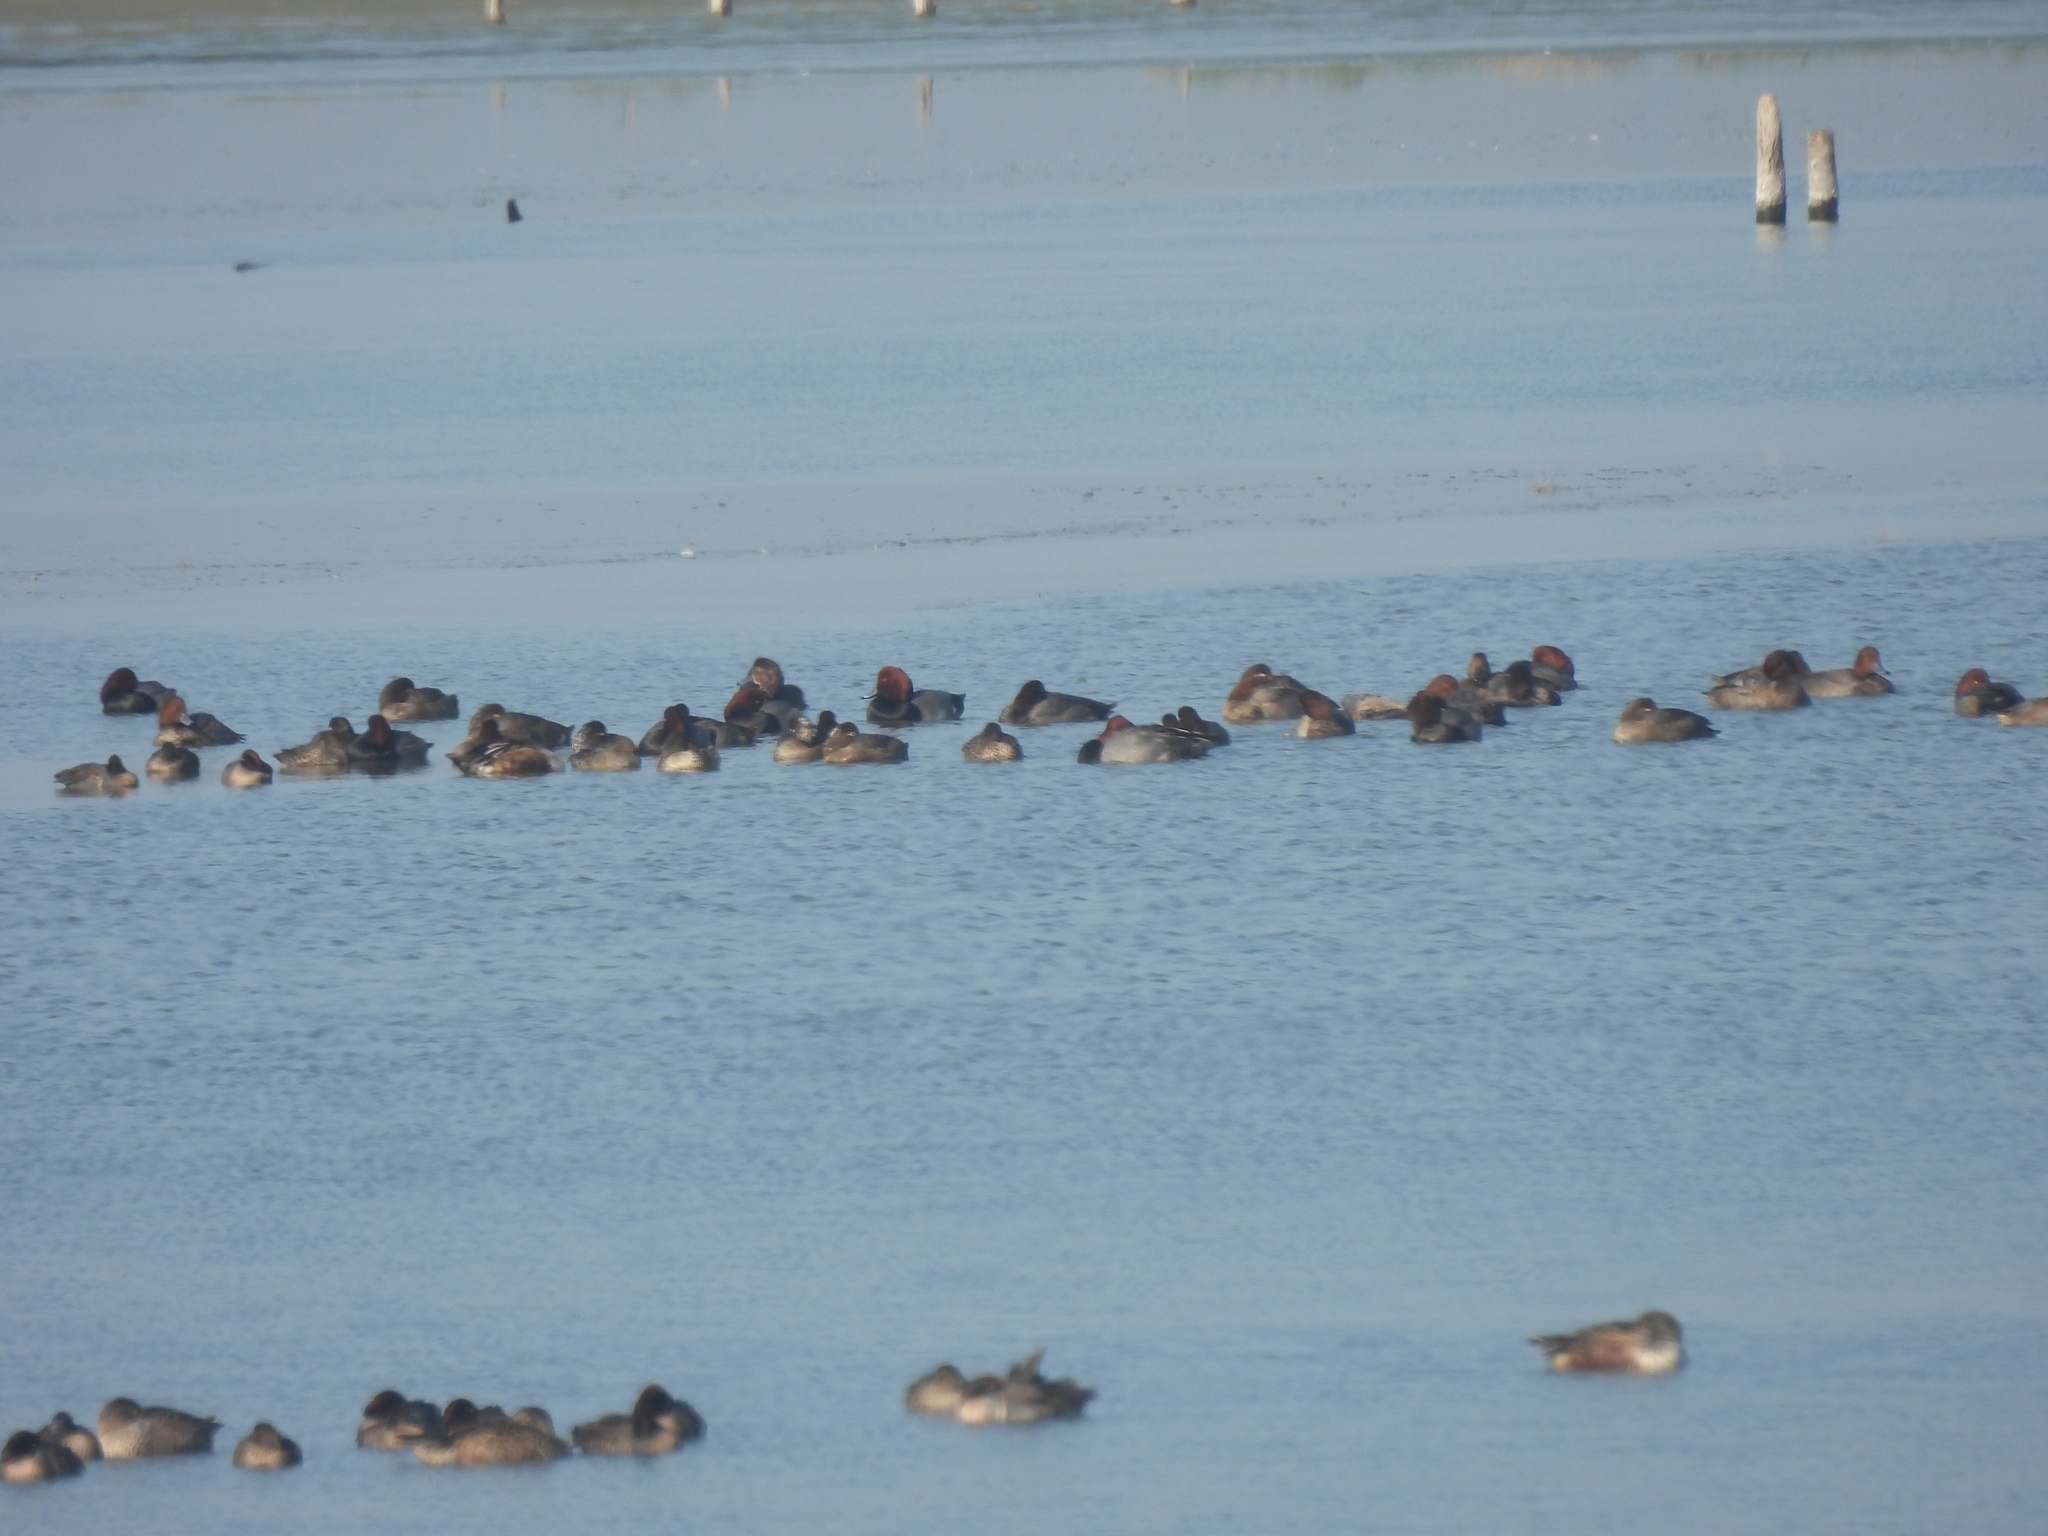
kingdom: Animalia
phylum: Chordata
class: Aves
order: Anseriformes
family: Anatidae
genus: Aythya
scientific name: Aythya americana
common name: Redhead
